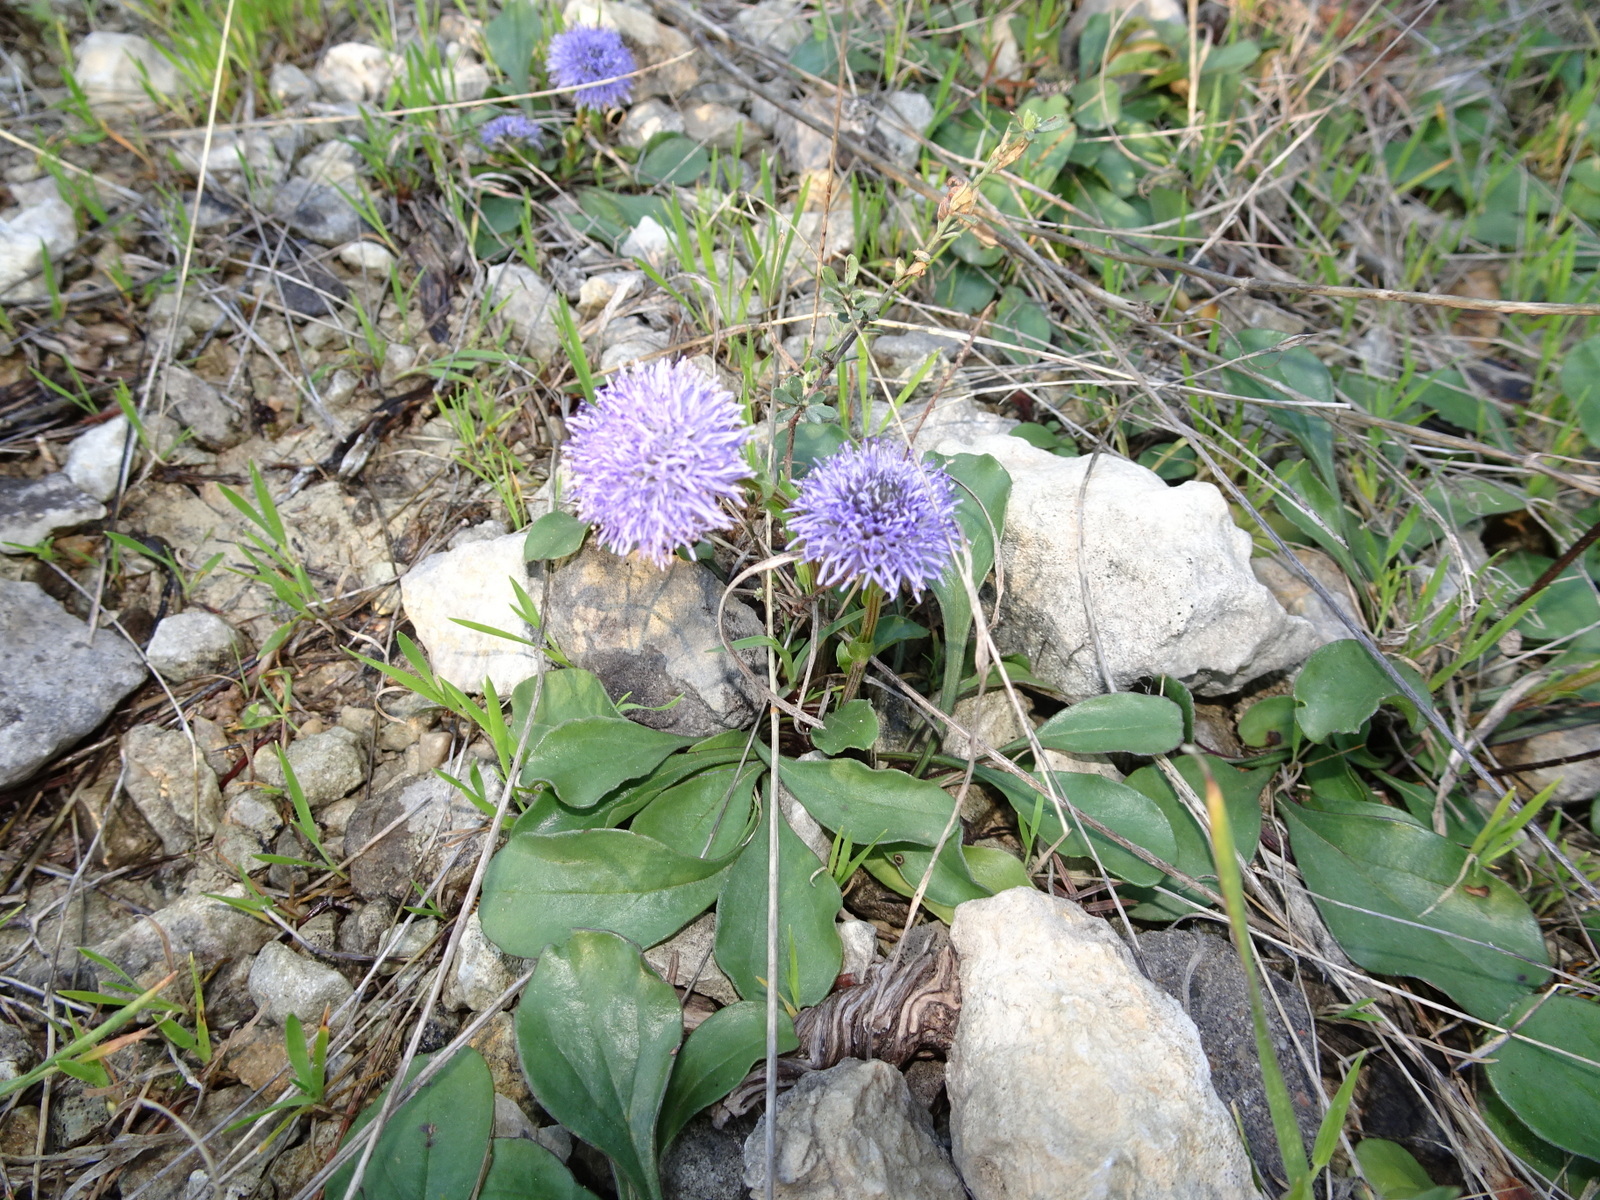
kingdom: Plantae
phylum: Tracheophyta
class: Magnoliopsida
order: Lamiales
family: Plantaginaceae
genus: Globularia
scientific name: Globularia vulgaris
